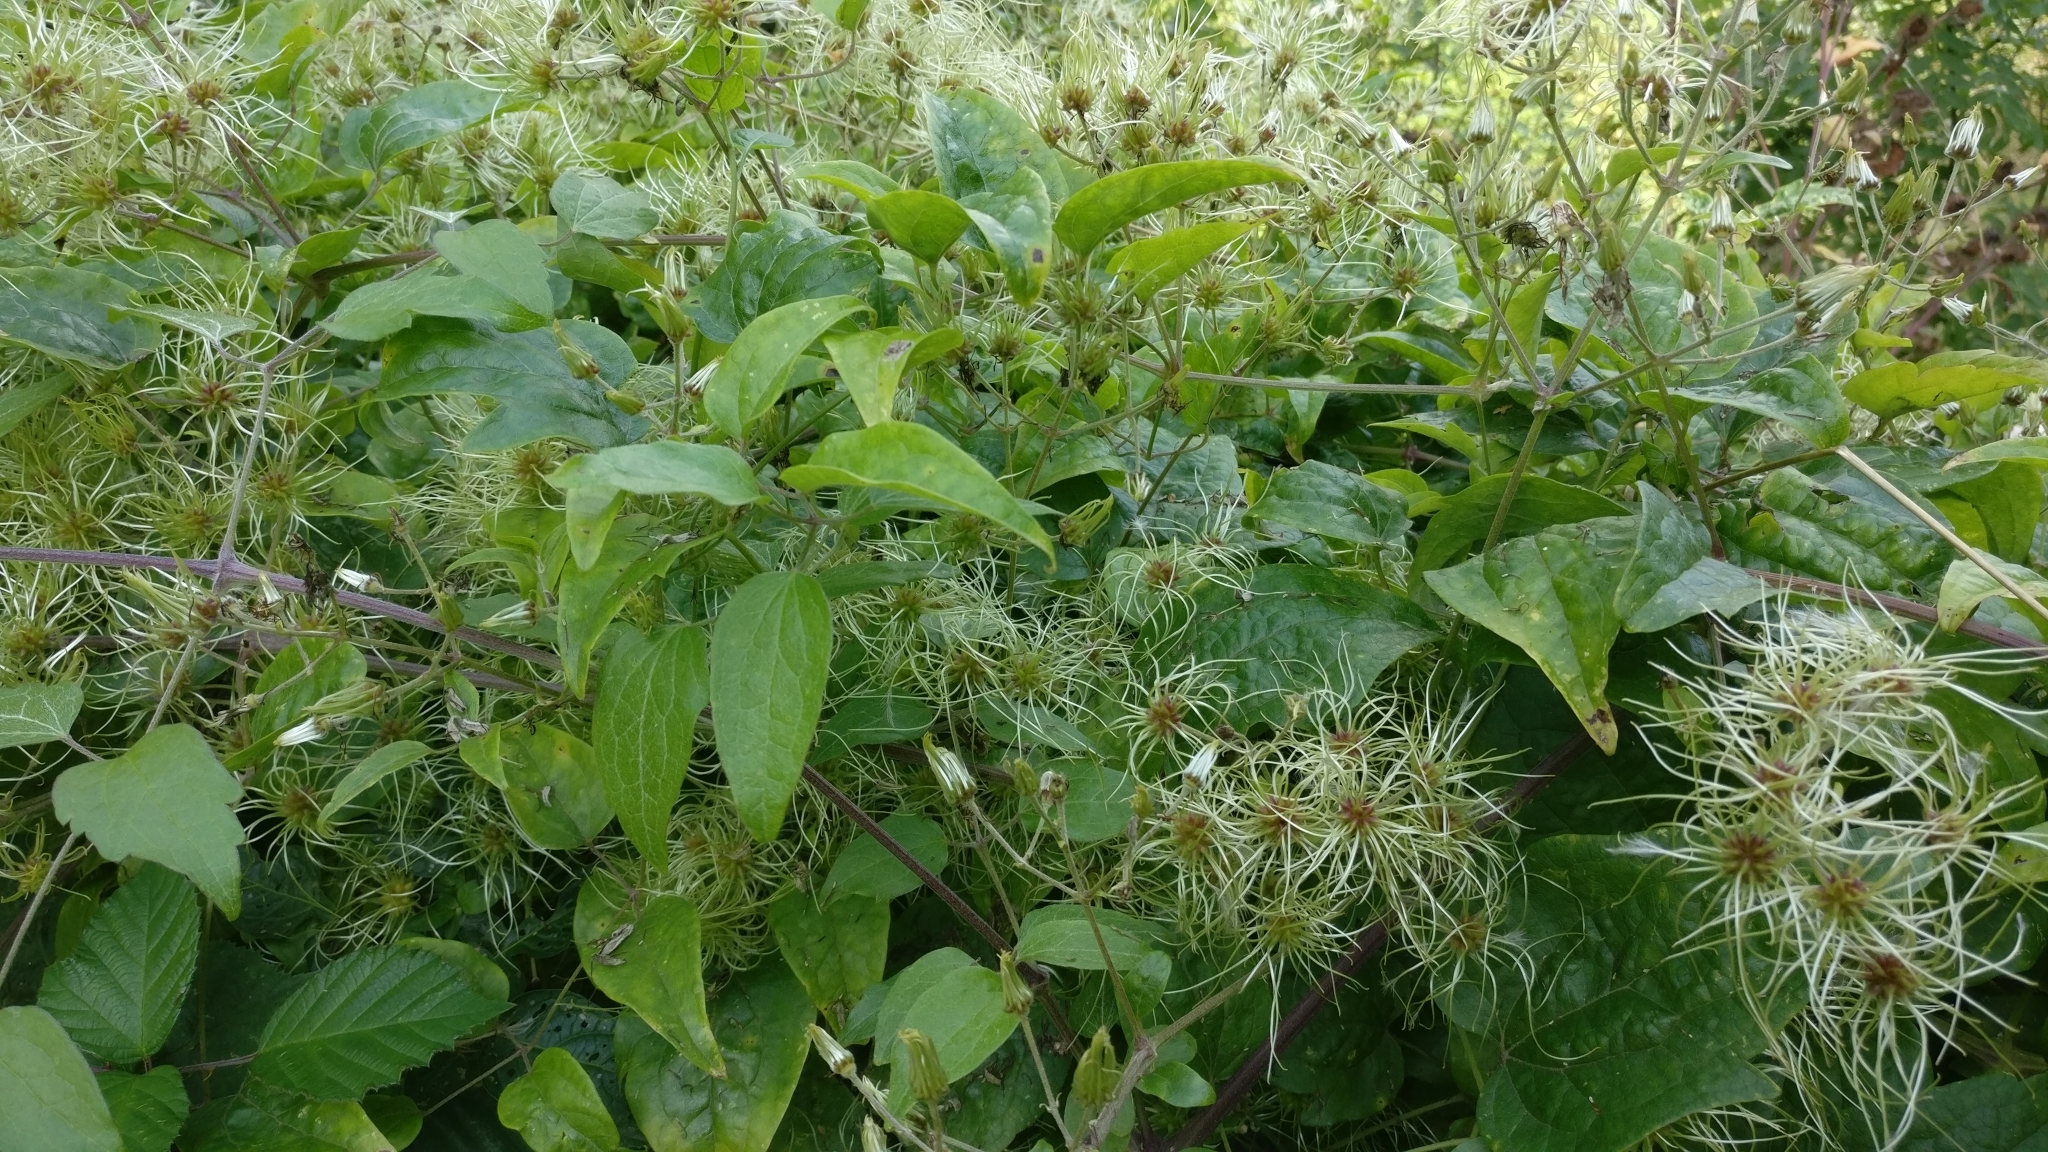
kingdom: Plantae
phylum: Tracheophyta
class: Magnoliopsida
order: Ranunculales
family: Ranunculaceae
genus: Clematis
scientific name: Clematis vitalba
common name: Evergreen clematis
